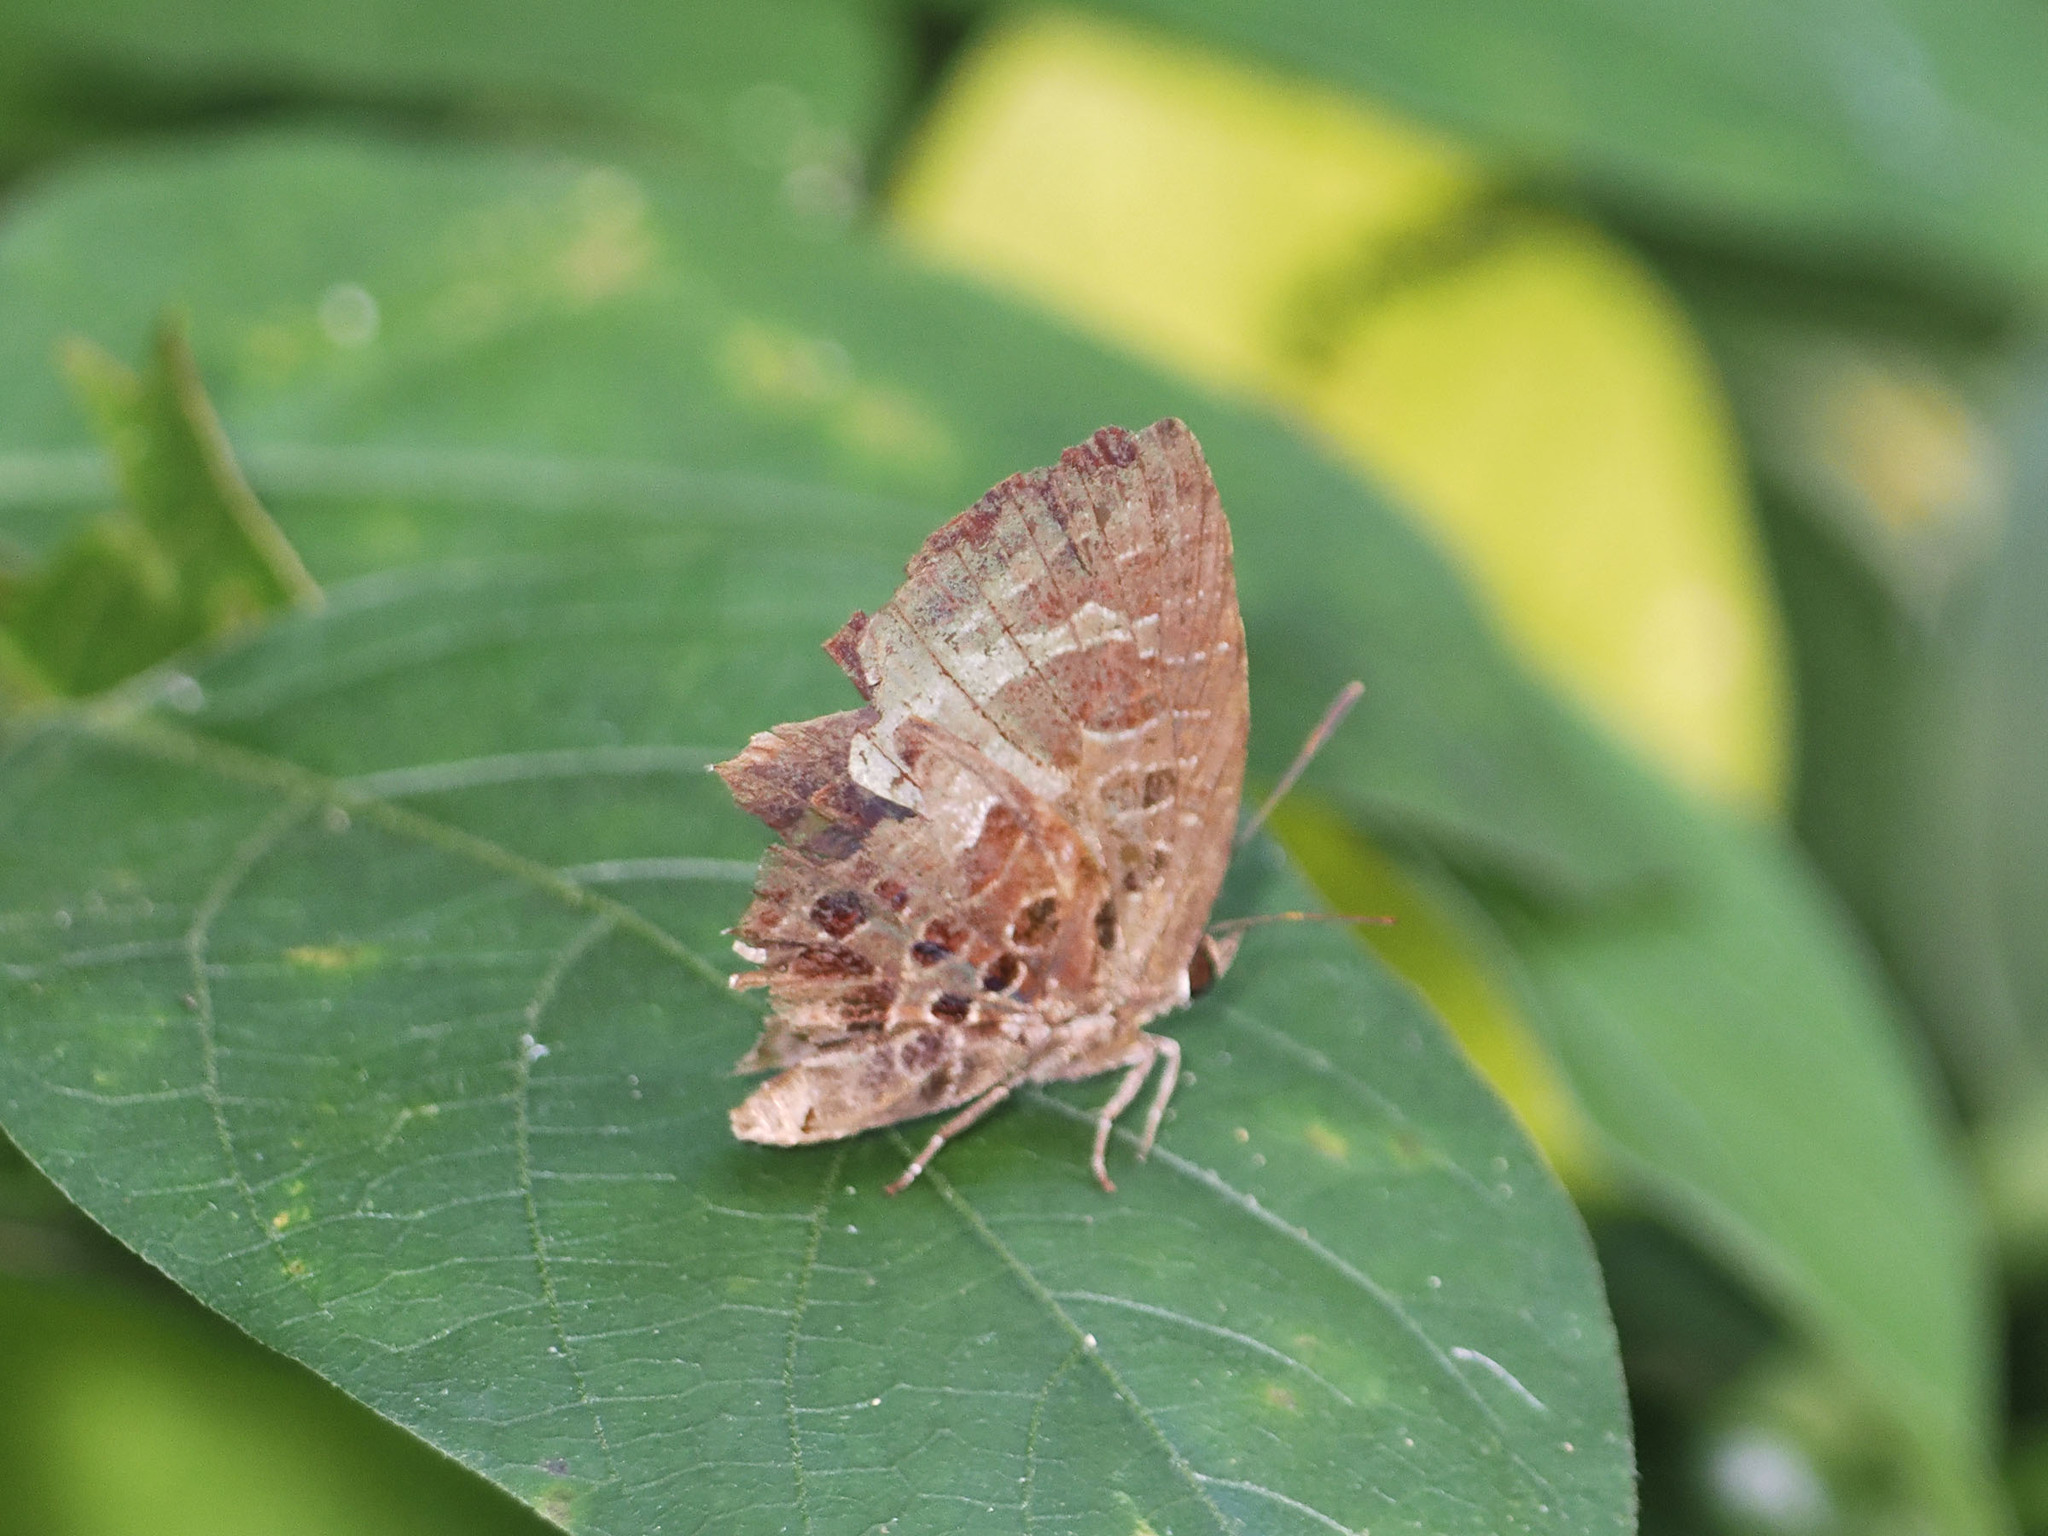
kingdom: Animalia
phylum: Arthropoda
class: Insecta
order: Lepidoptera
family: Lycaenidae
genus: Arhopala
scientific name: Arhopala abseus
